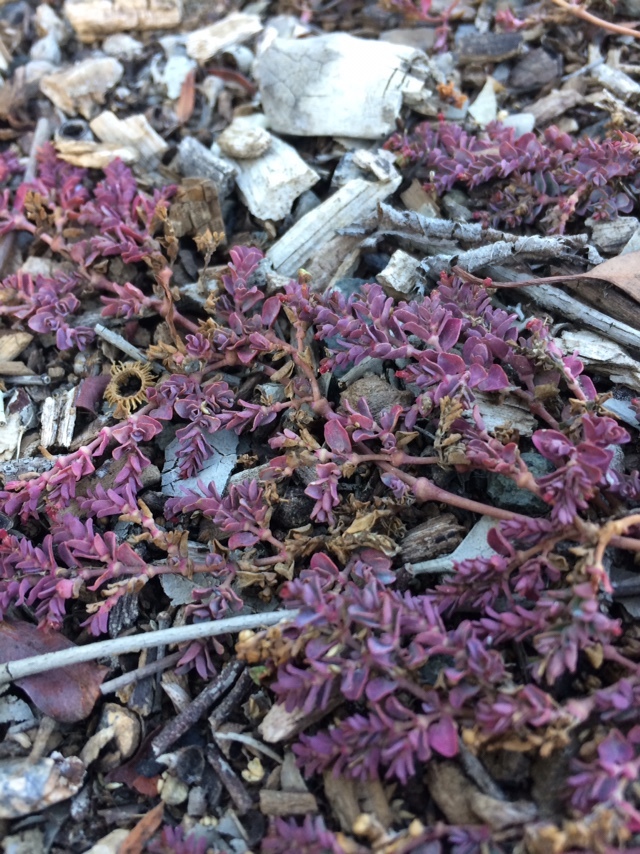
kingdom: Plantae
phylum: Tracheophyta
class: Magnoliopsida
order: Malpighiales
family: Euphorbiaceae
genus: Euphorbia
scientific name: Euphorbia serpens
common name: Matted sandmat
